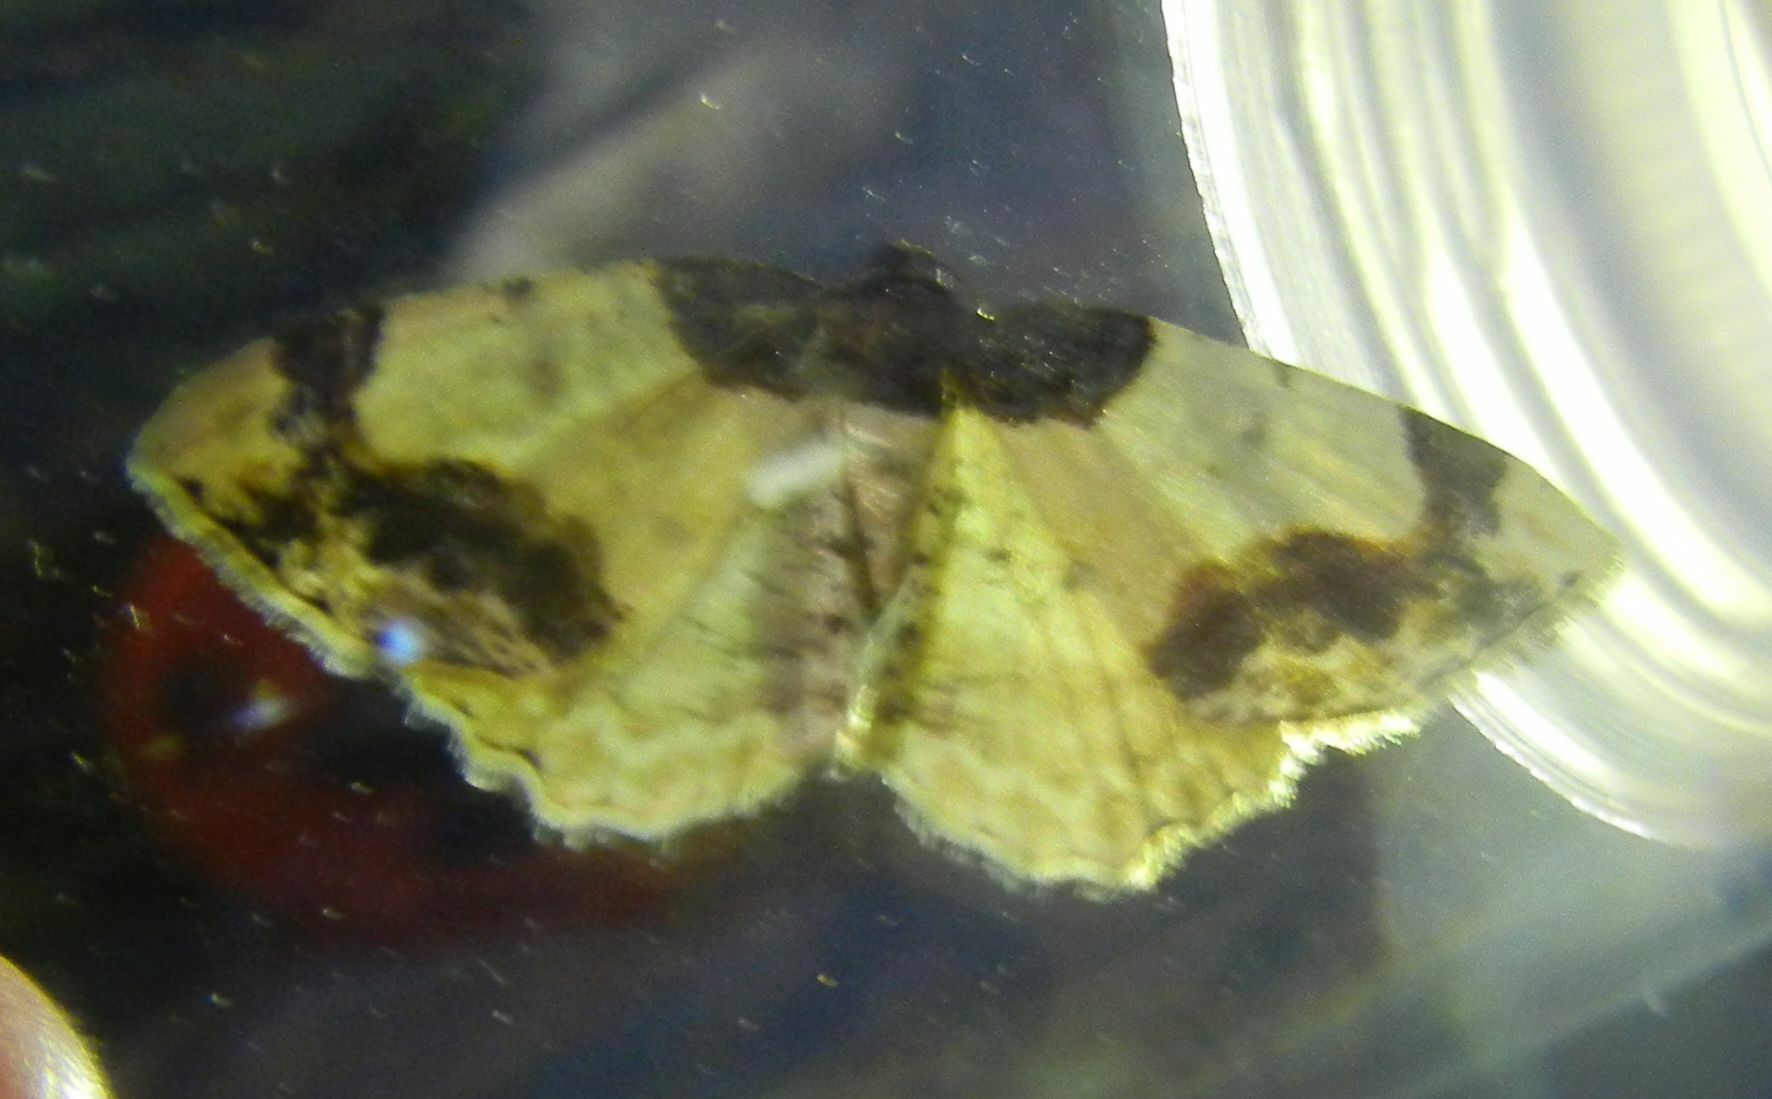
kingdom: Animalia
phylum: Arthropoda
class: Insecta
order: Lepidoptera
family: Geometridae
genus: Ligdia
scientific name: Ligdia adustata
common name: Scorched carpet
